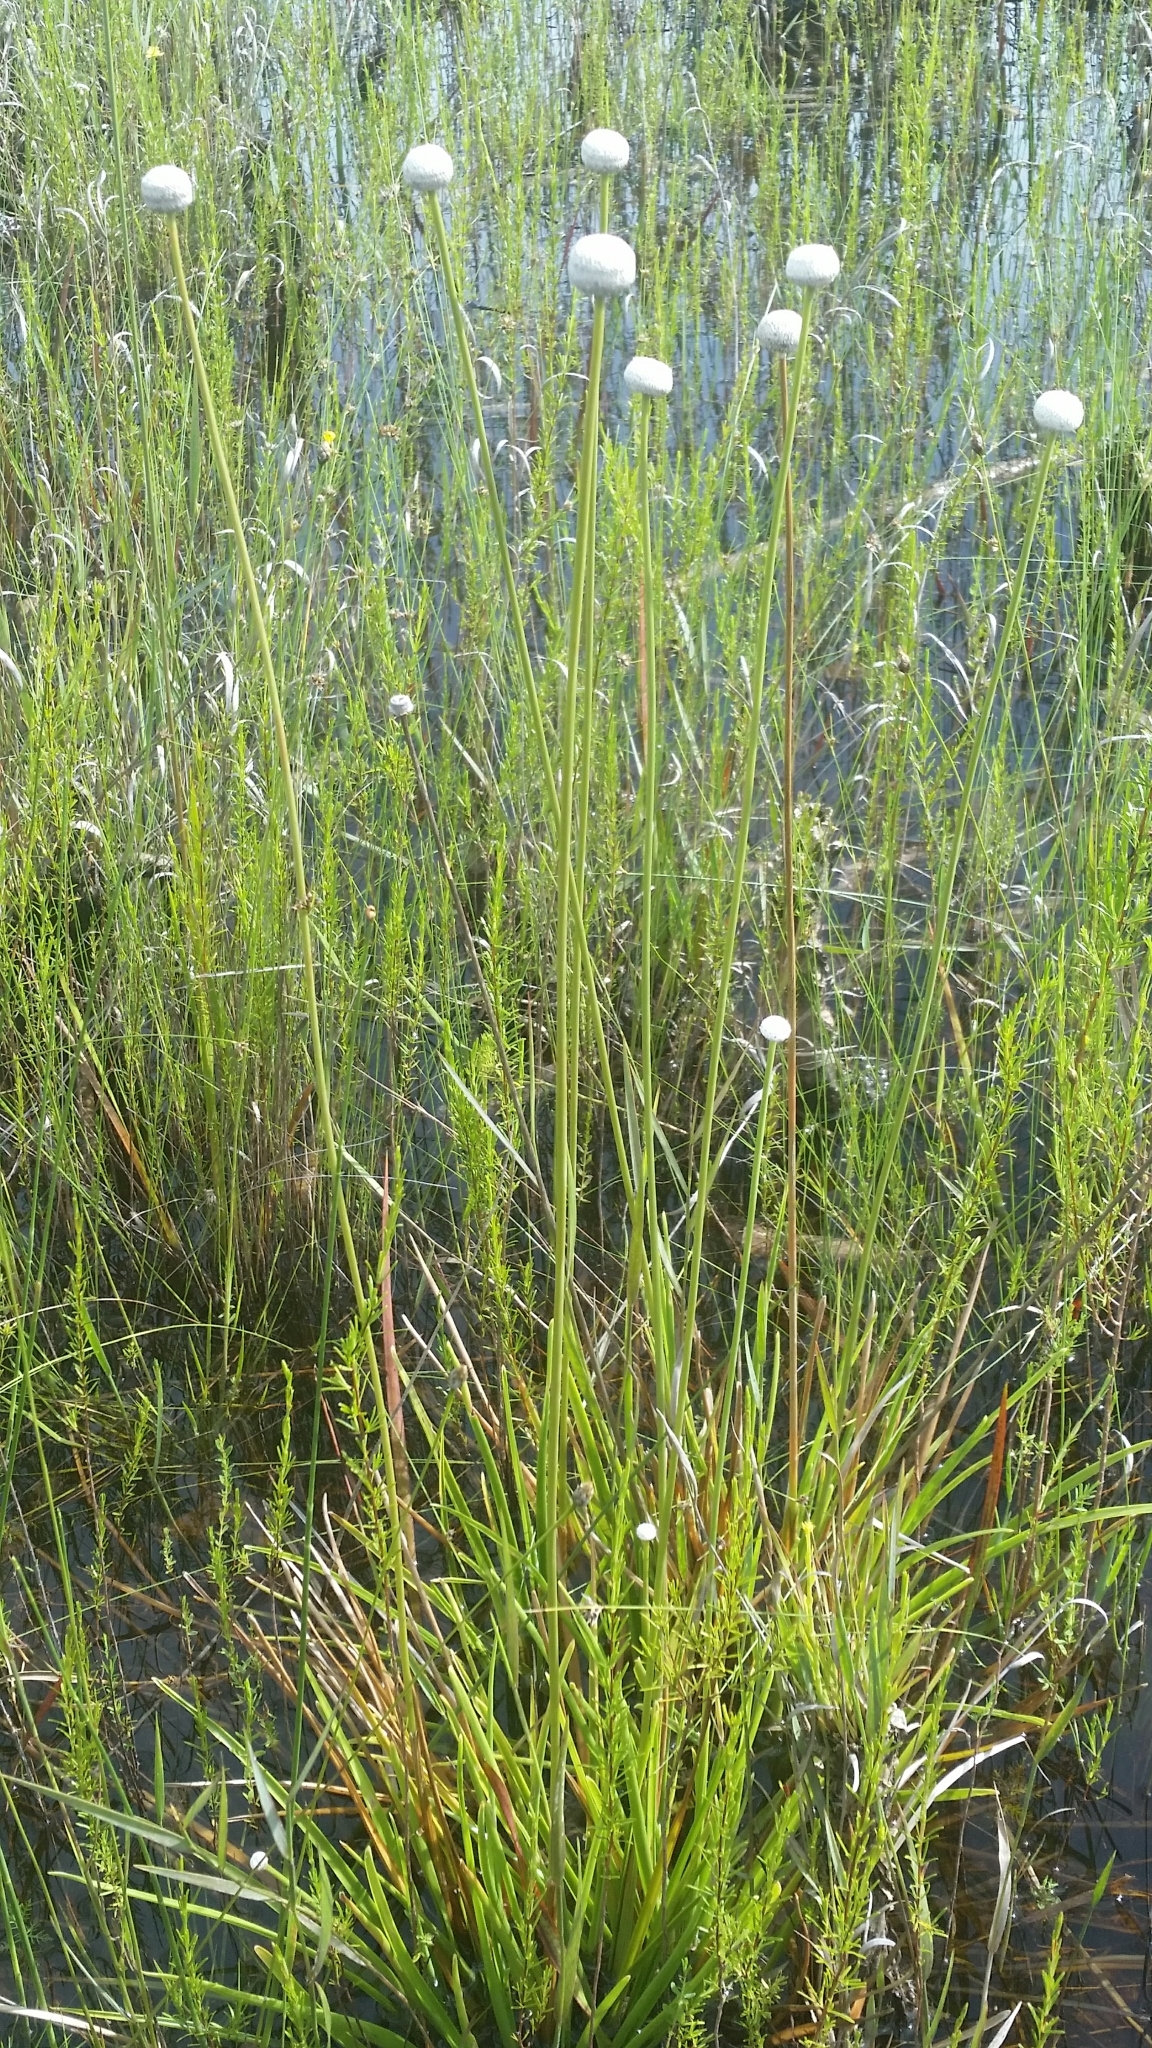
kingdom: Plantae
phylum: Tracheophyta
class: Liliopsida
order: Poales
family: Eriocaulaceae
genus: Eriocaulon
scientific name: Eriocaulon decangulare
